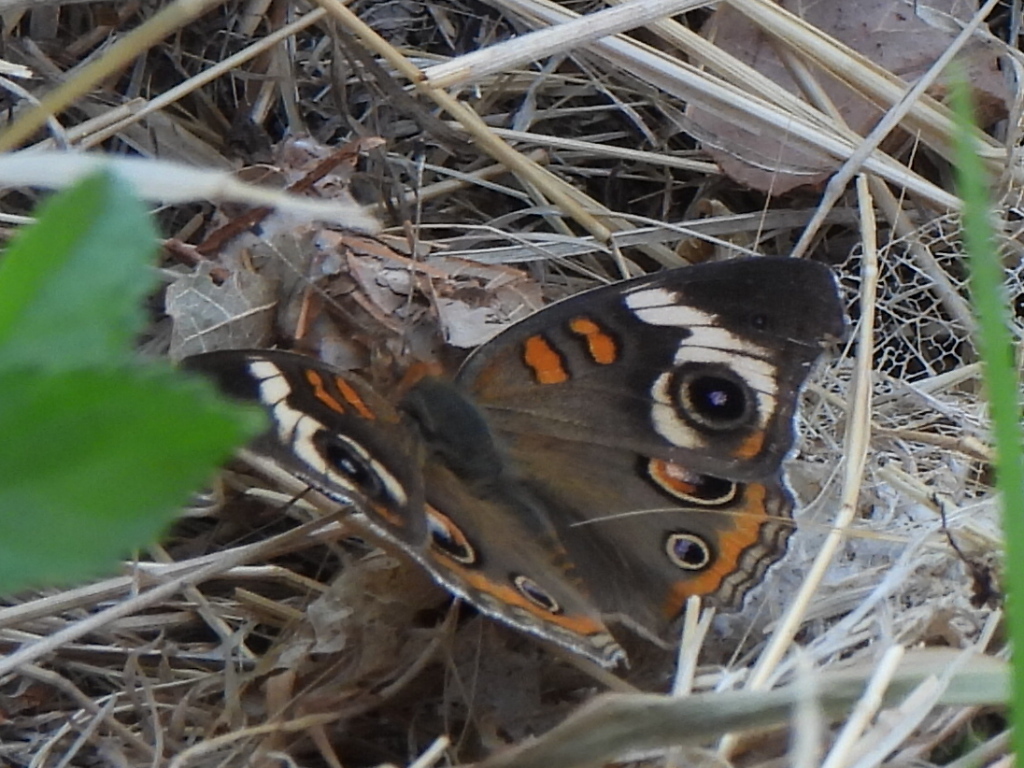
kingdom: Animalia
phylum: Arthropoda
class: Insecta
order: Lepidoptera
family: Nymphalidae
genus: Junonia
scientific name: Junonia coenia
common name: Common buckeye
